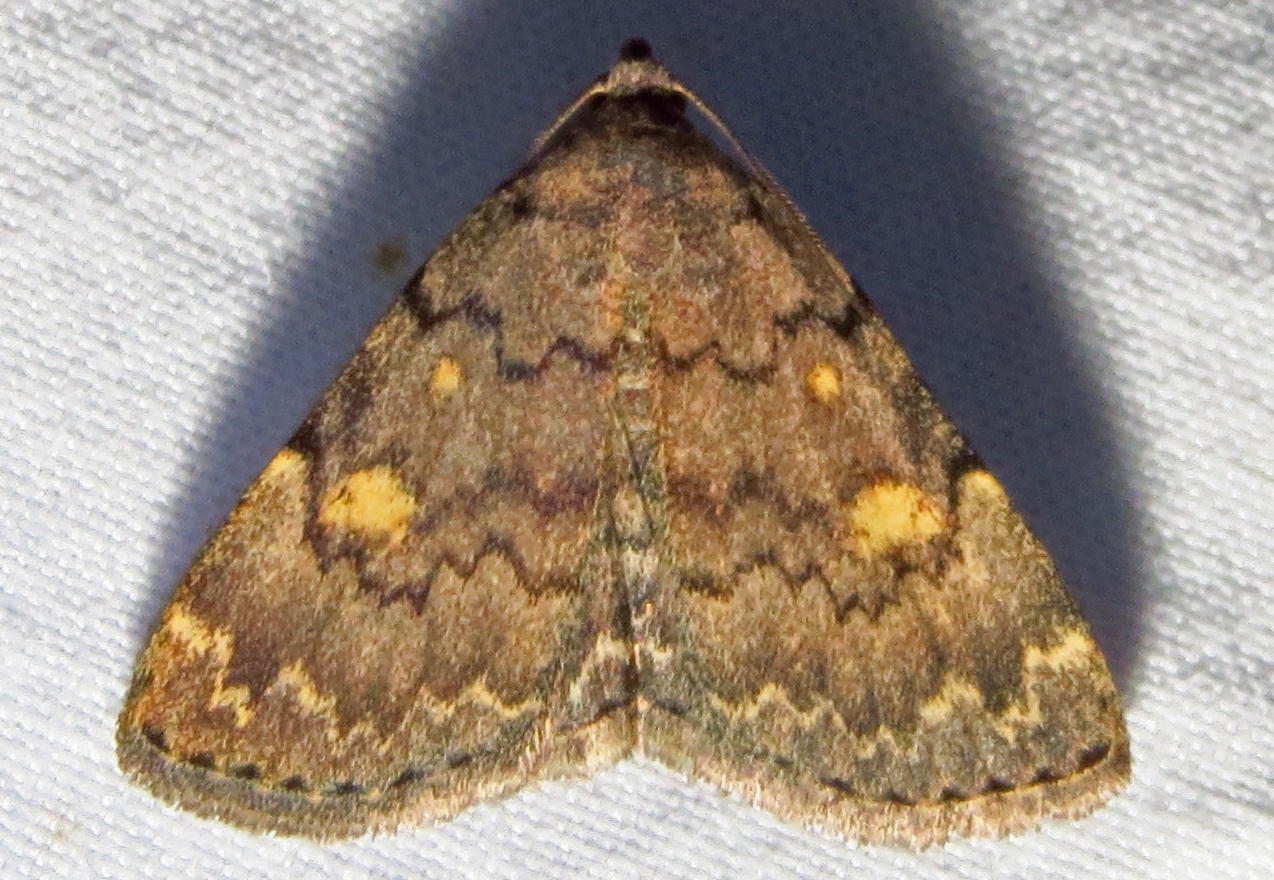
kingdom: Animalia
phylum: Arthropoda
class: Insecta
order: Lepidoptera
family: Erebidae
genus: Idia
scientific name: Idia aemula
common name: Common idia moth
